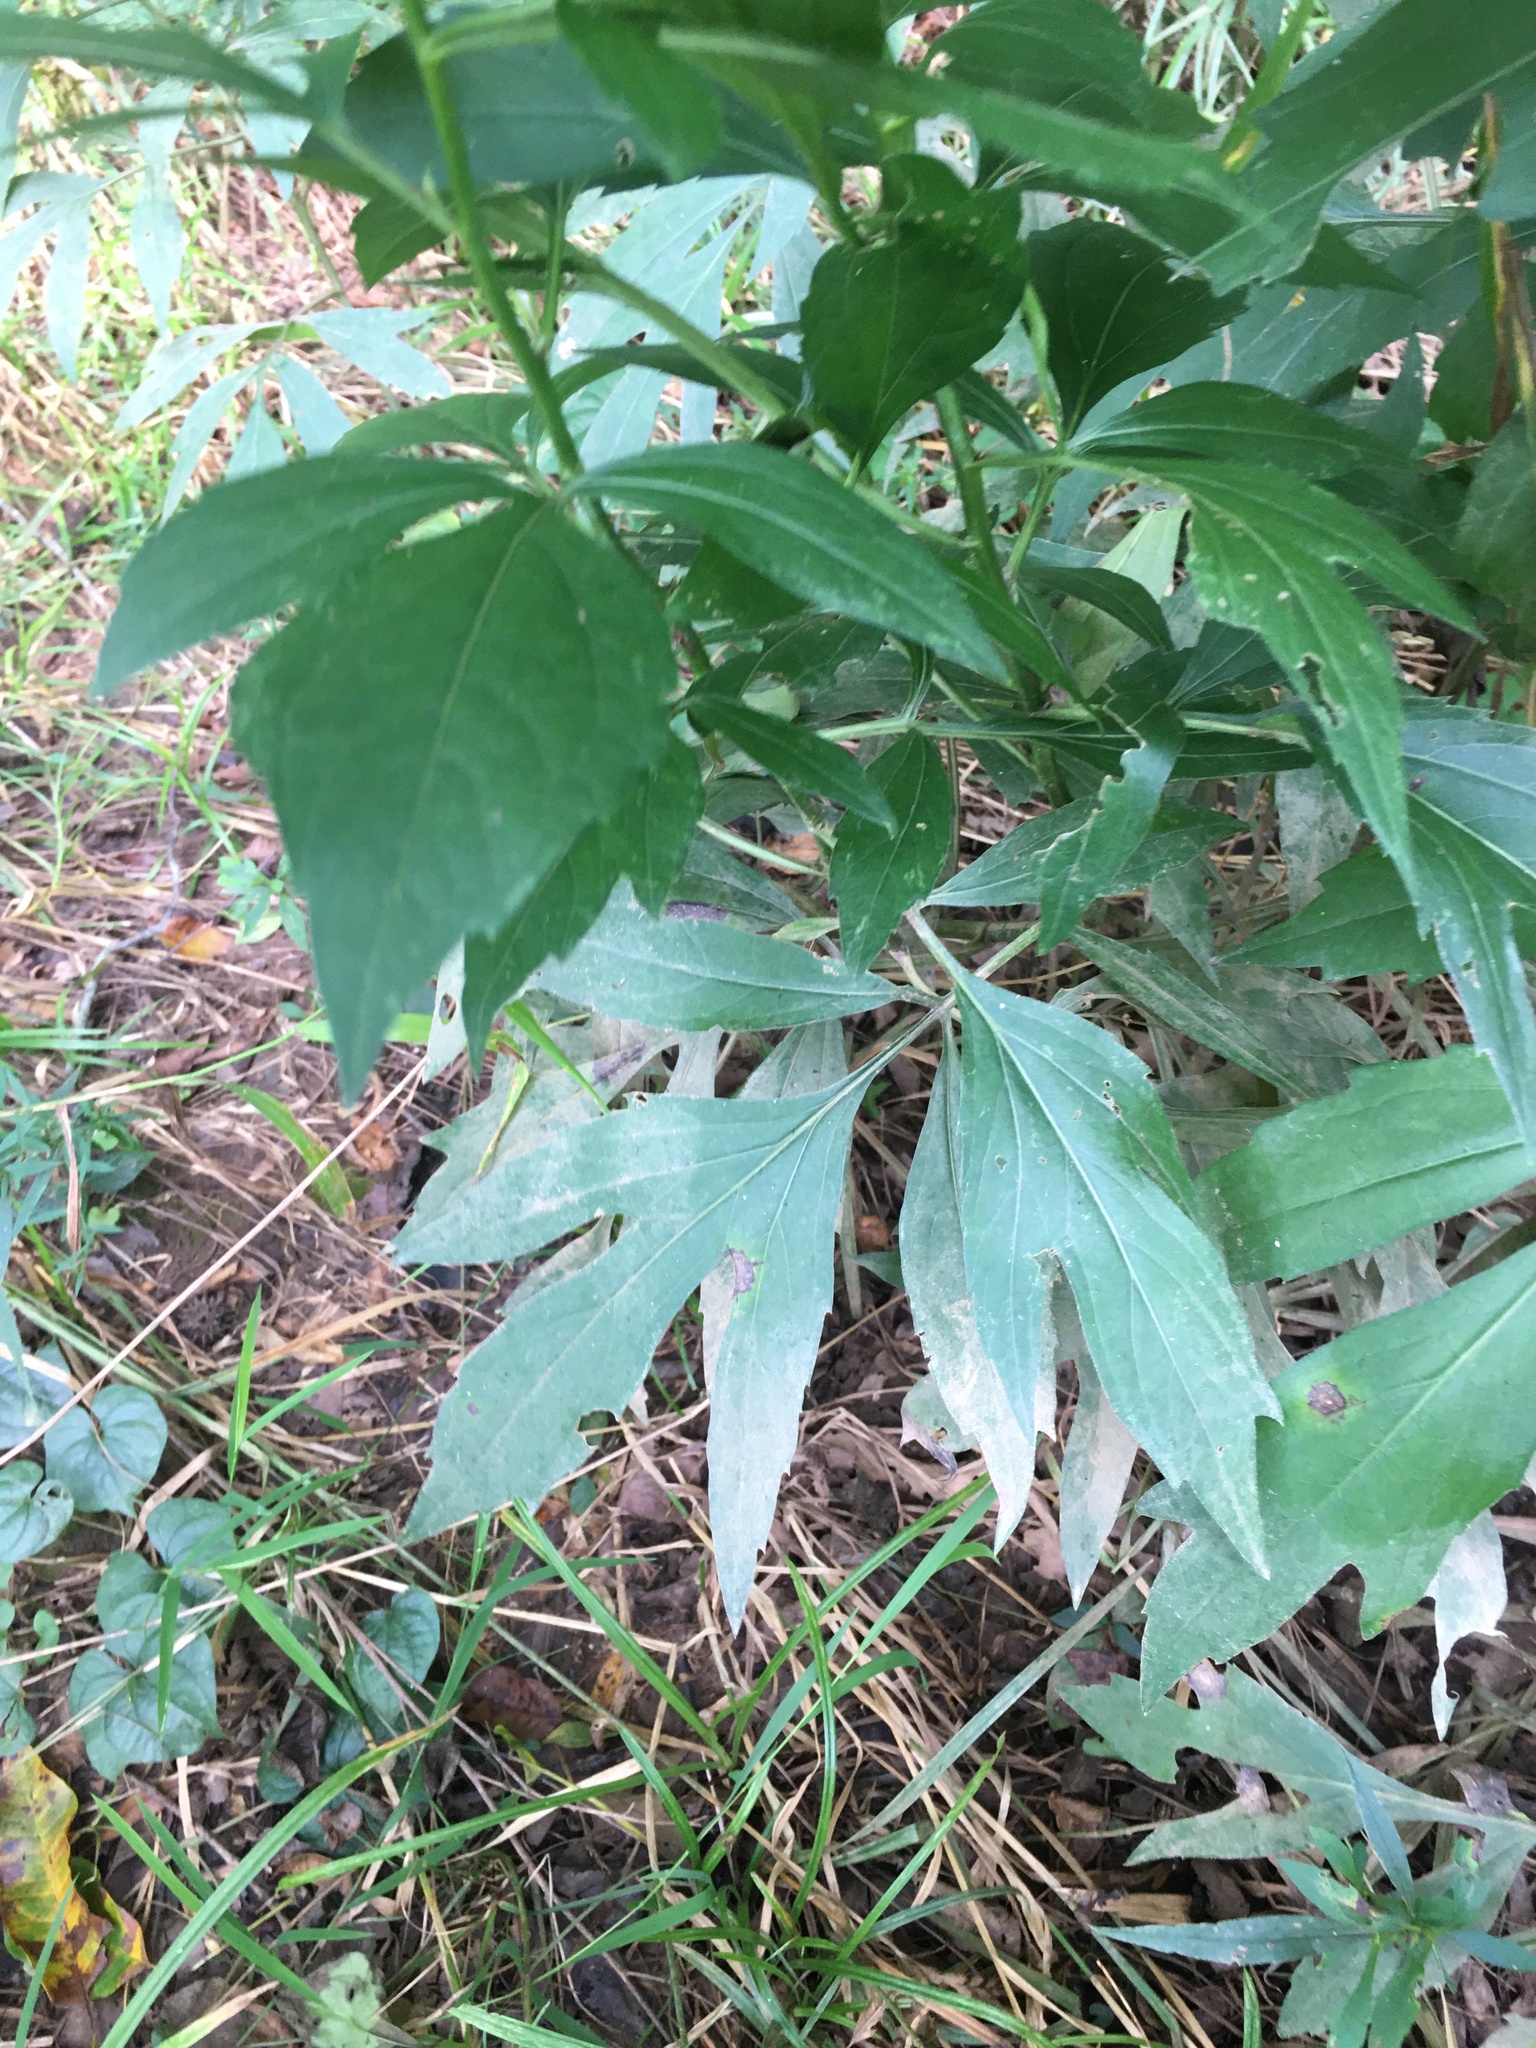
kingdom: Plantae
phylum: Tracheophyta
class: Magnoliopsida
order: Asterales
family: Asteraceae
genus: Rudbeckia
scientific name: Rudbeckia laciniata
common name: Coneflower
